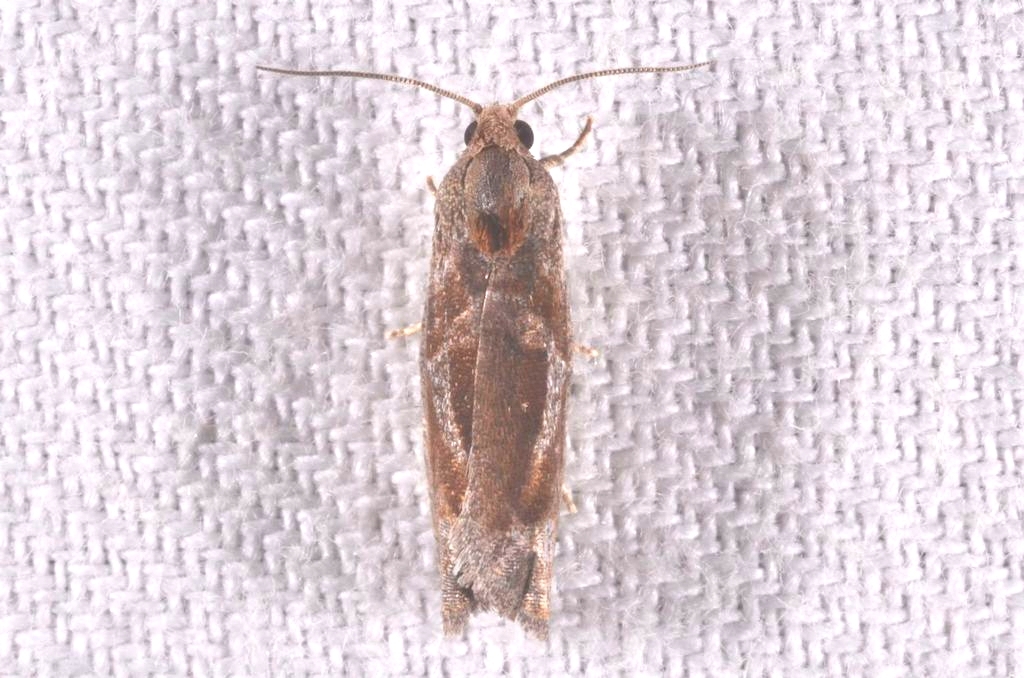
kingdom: Animalia
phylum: Arthropoda
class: Insecta
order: Lepidoptera
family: Tortricidae
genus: Epiblema
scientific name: Epiblema foenella
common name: White-foot bell
